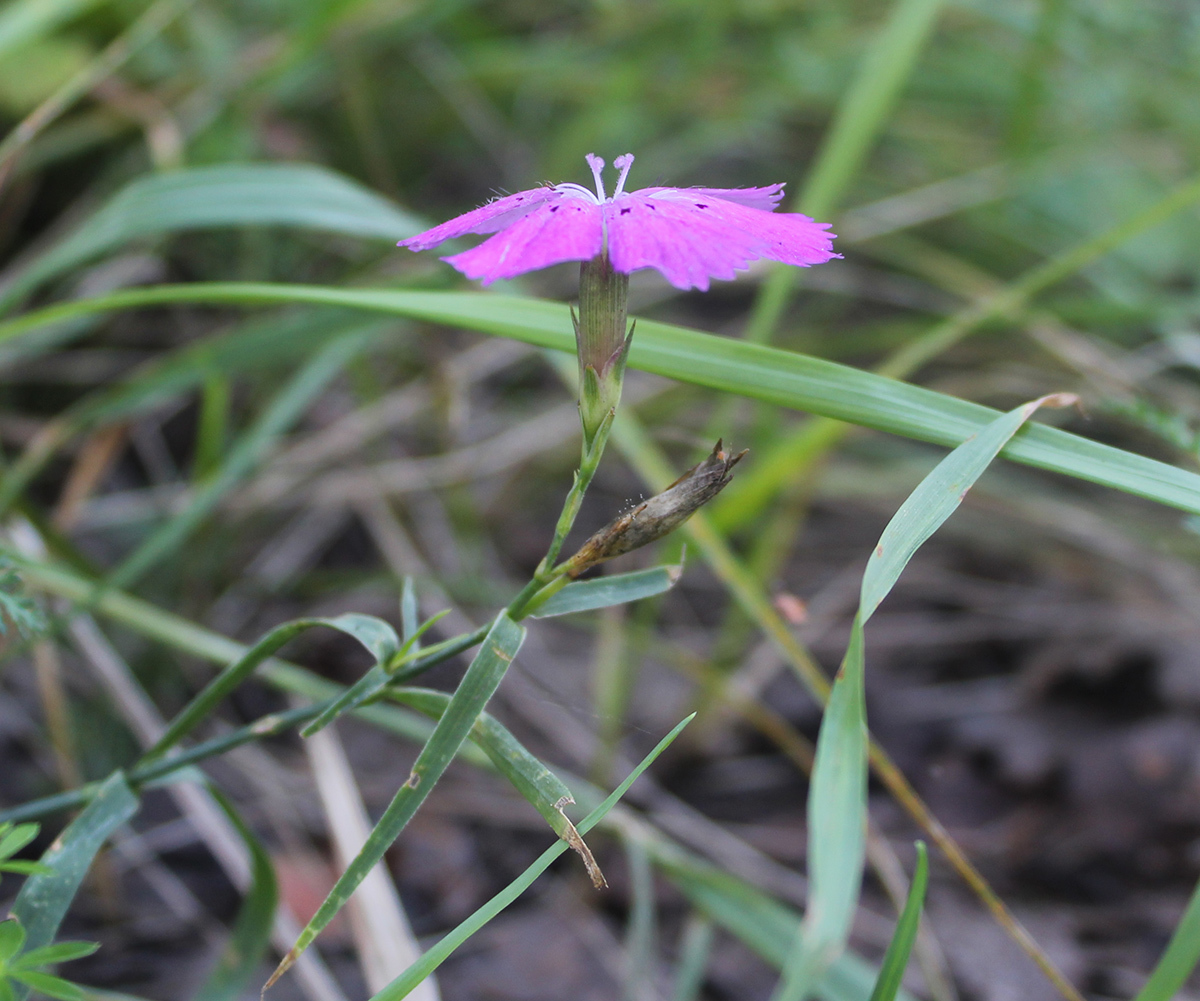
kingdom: Plantae
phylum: Tracheophyta
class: Magnoliopsida
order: Caryophyllales
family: Caryophyllaceae
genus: Dianthus
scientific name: Dianthus chinensis
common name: Rainbow pink
